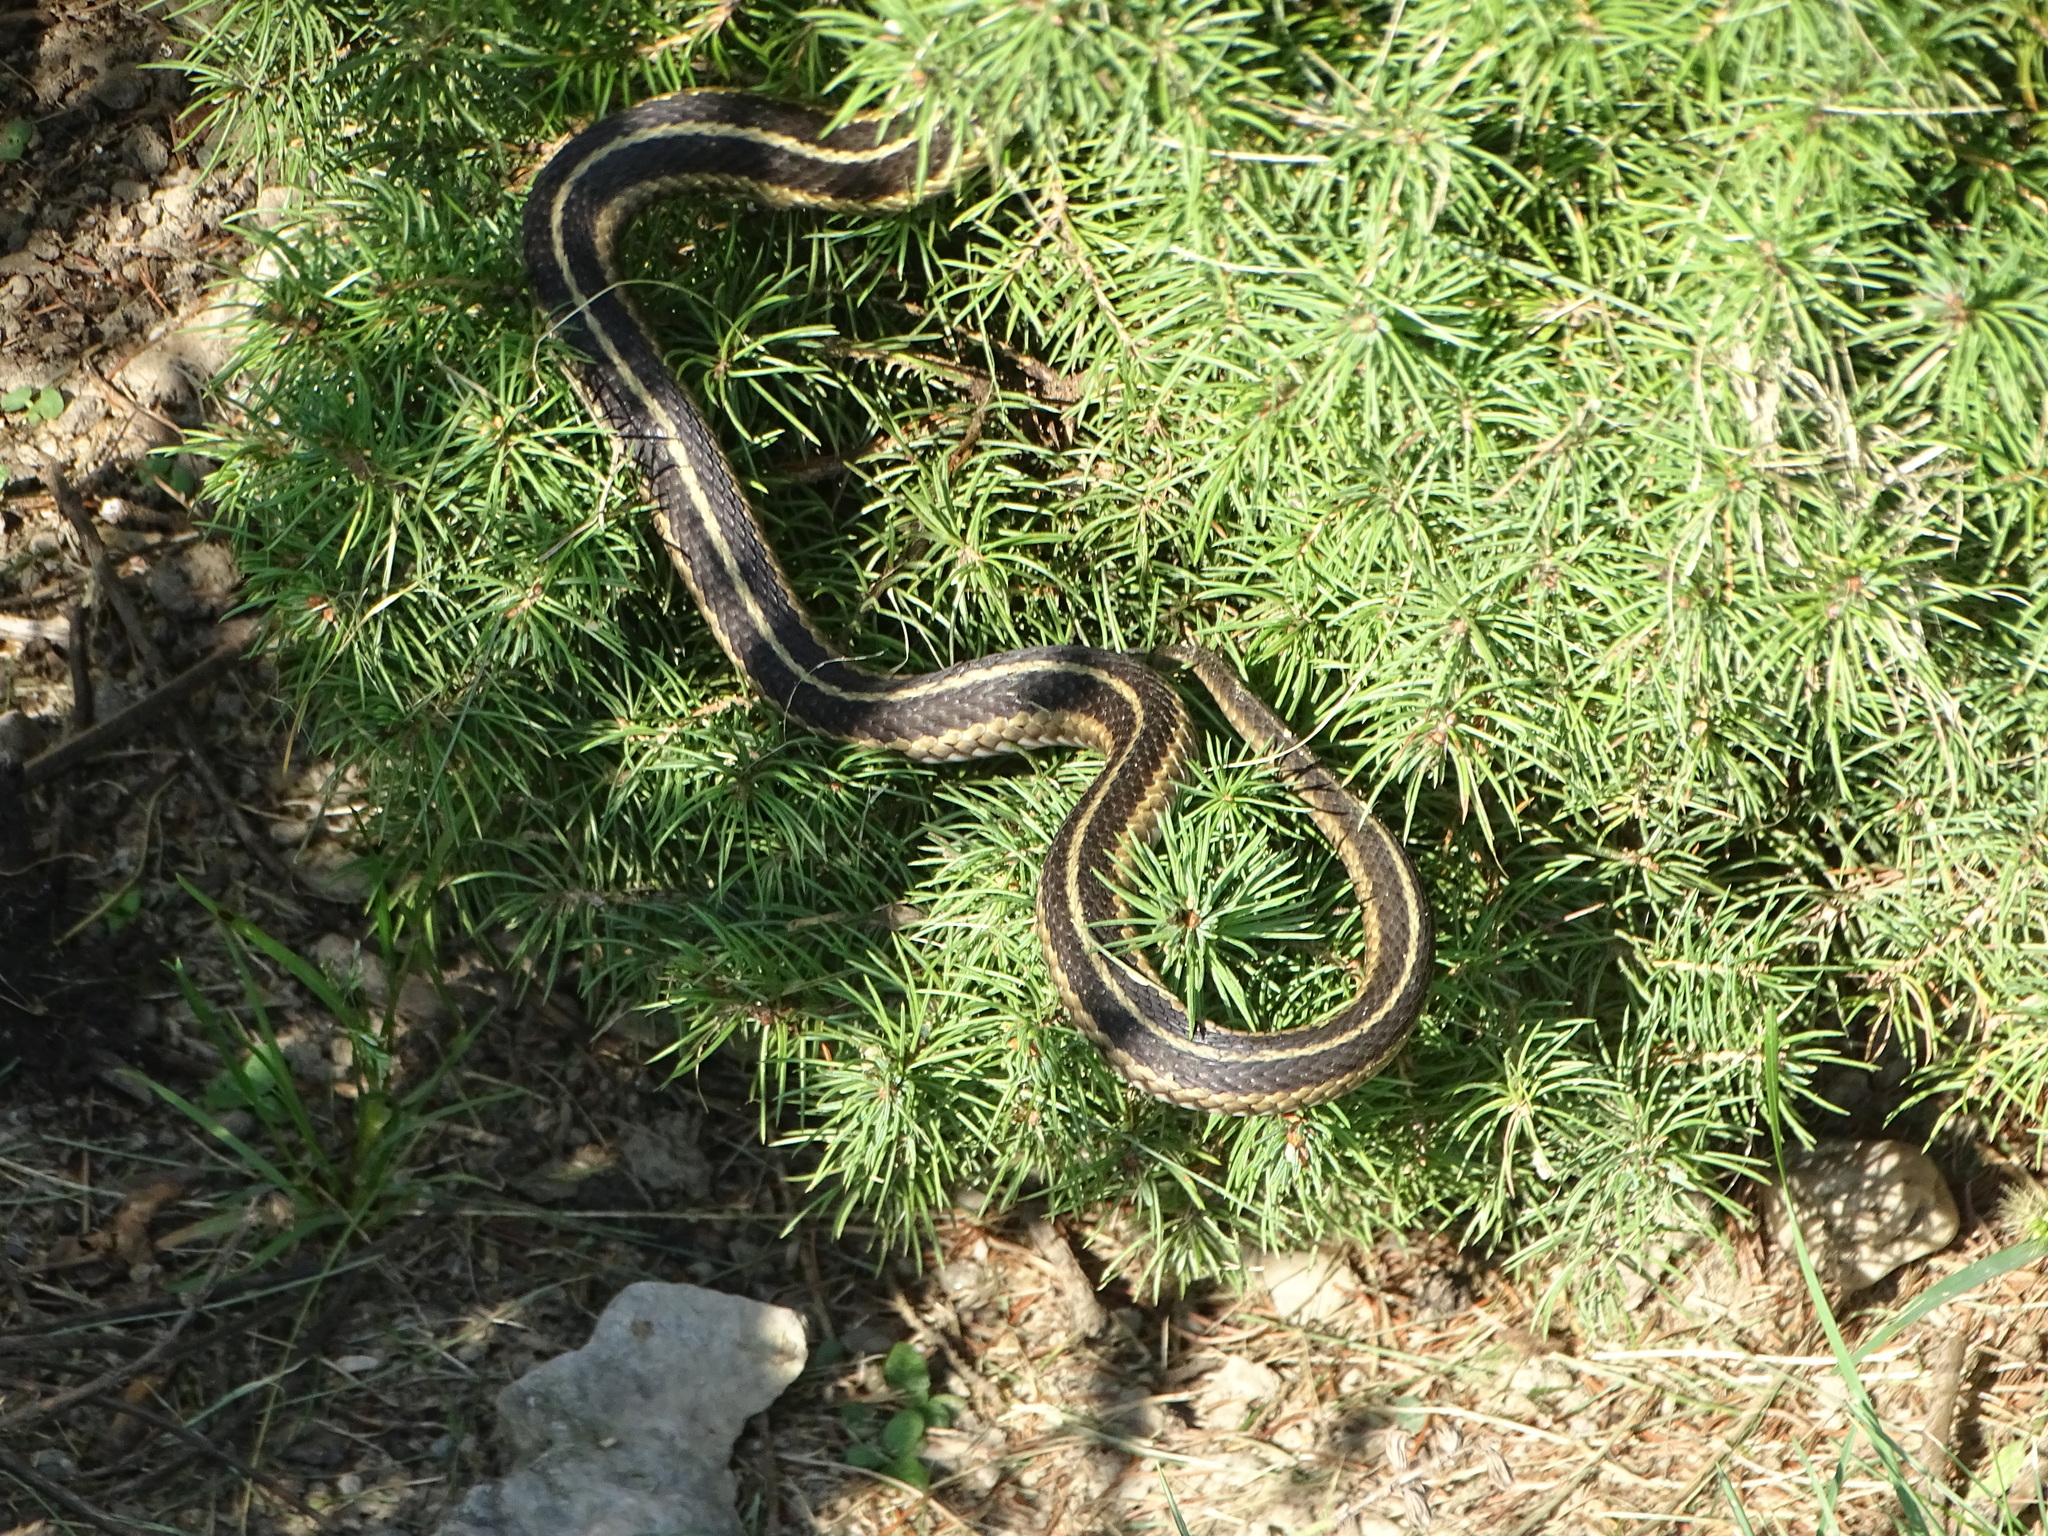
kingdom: Animalia
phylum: Chordata
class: Squamata
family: Colubridae
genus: Thamnophis
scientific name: Thamnophis sirtalis
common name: Common garter snake
